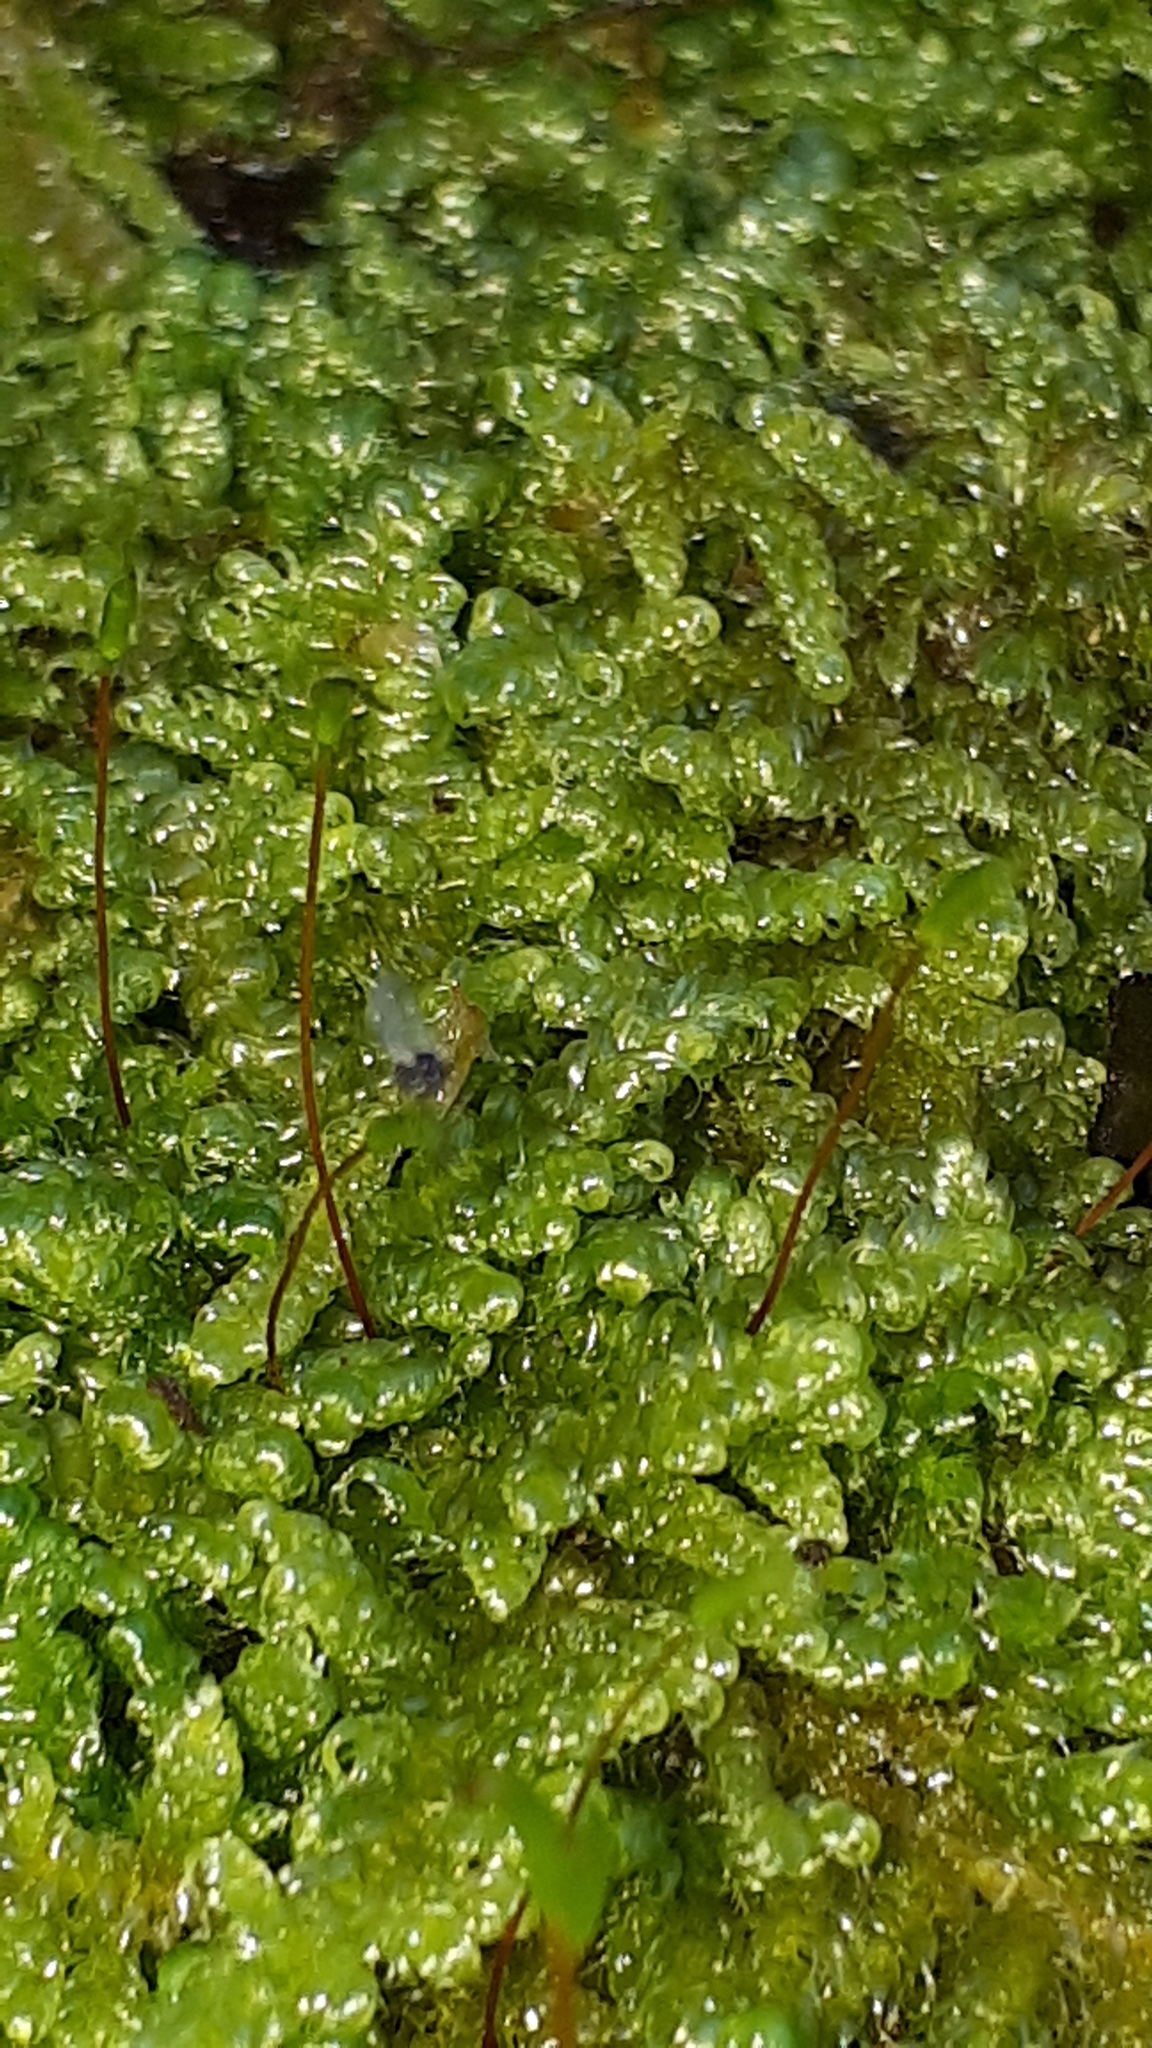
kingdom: Plantae
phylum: Bryophyta
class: Bryopsida
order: Hypnales
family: Hypnaceae
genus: Hypnum
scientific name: Hypnum cupressiforme
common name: Cypress-leaved plait-moss
